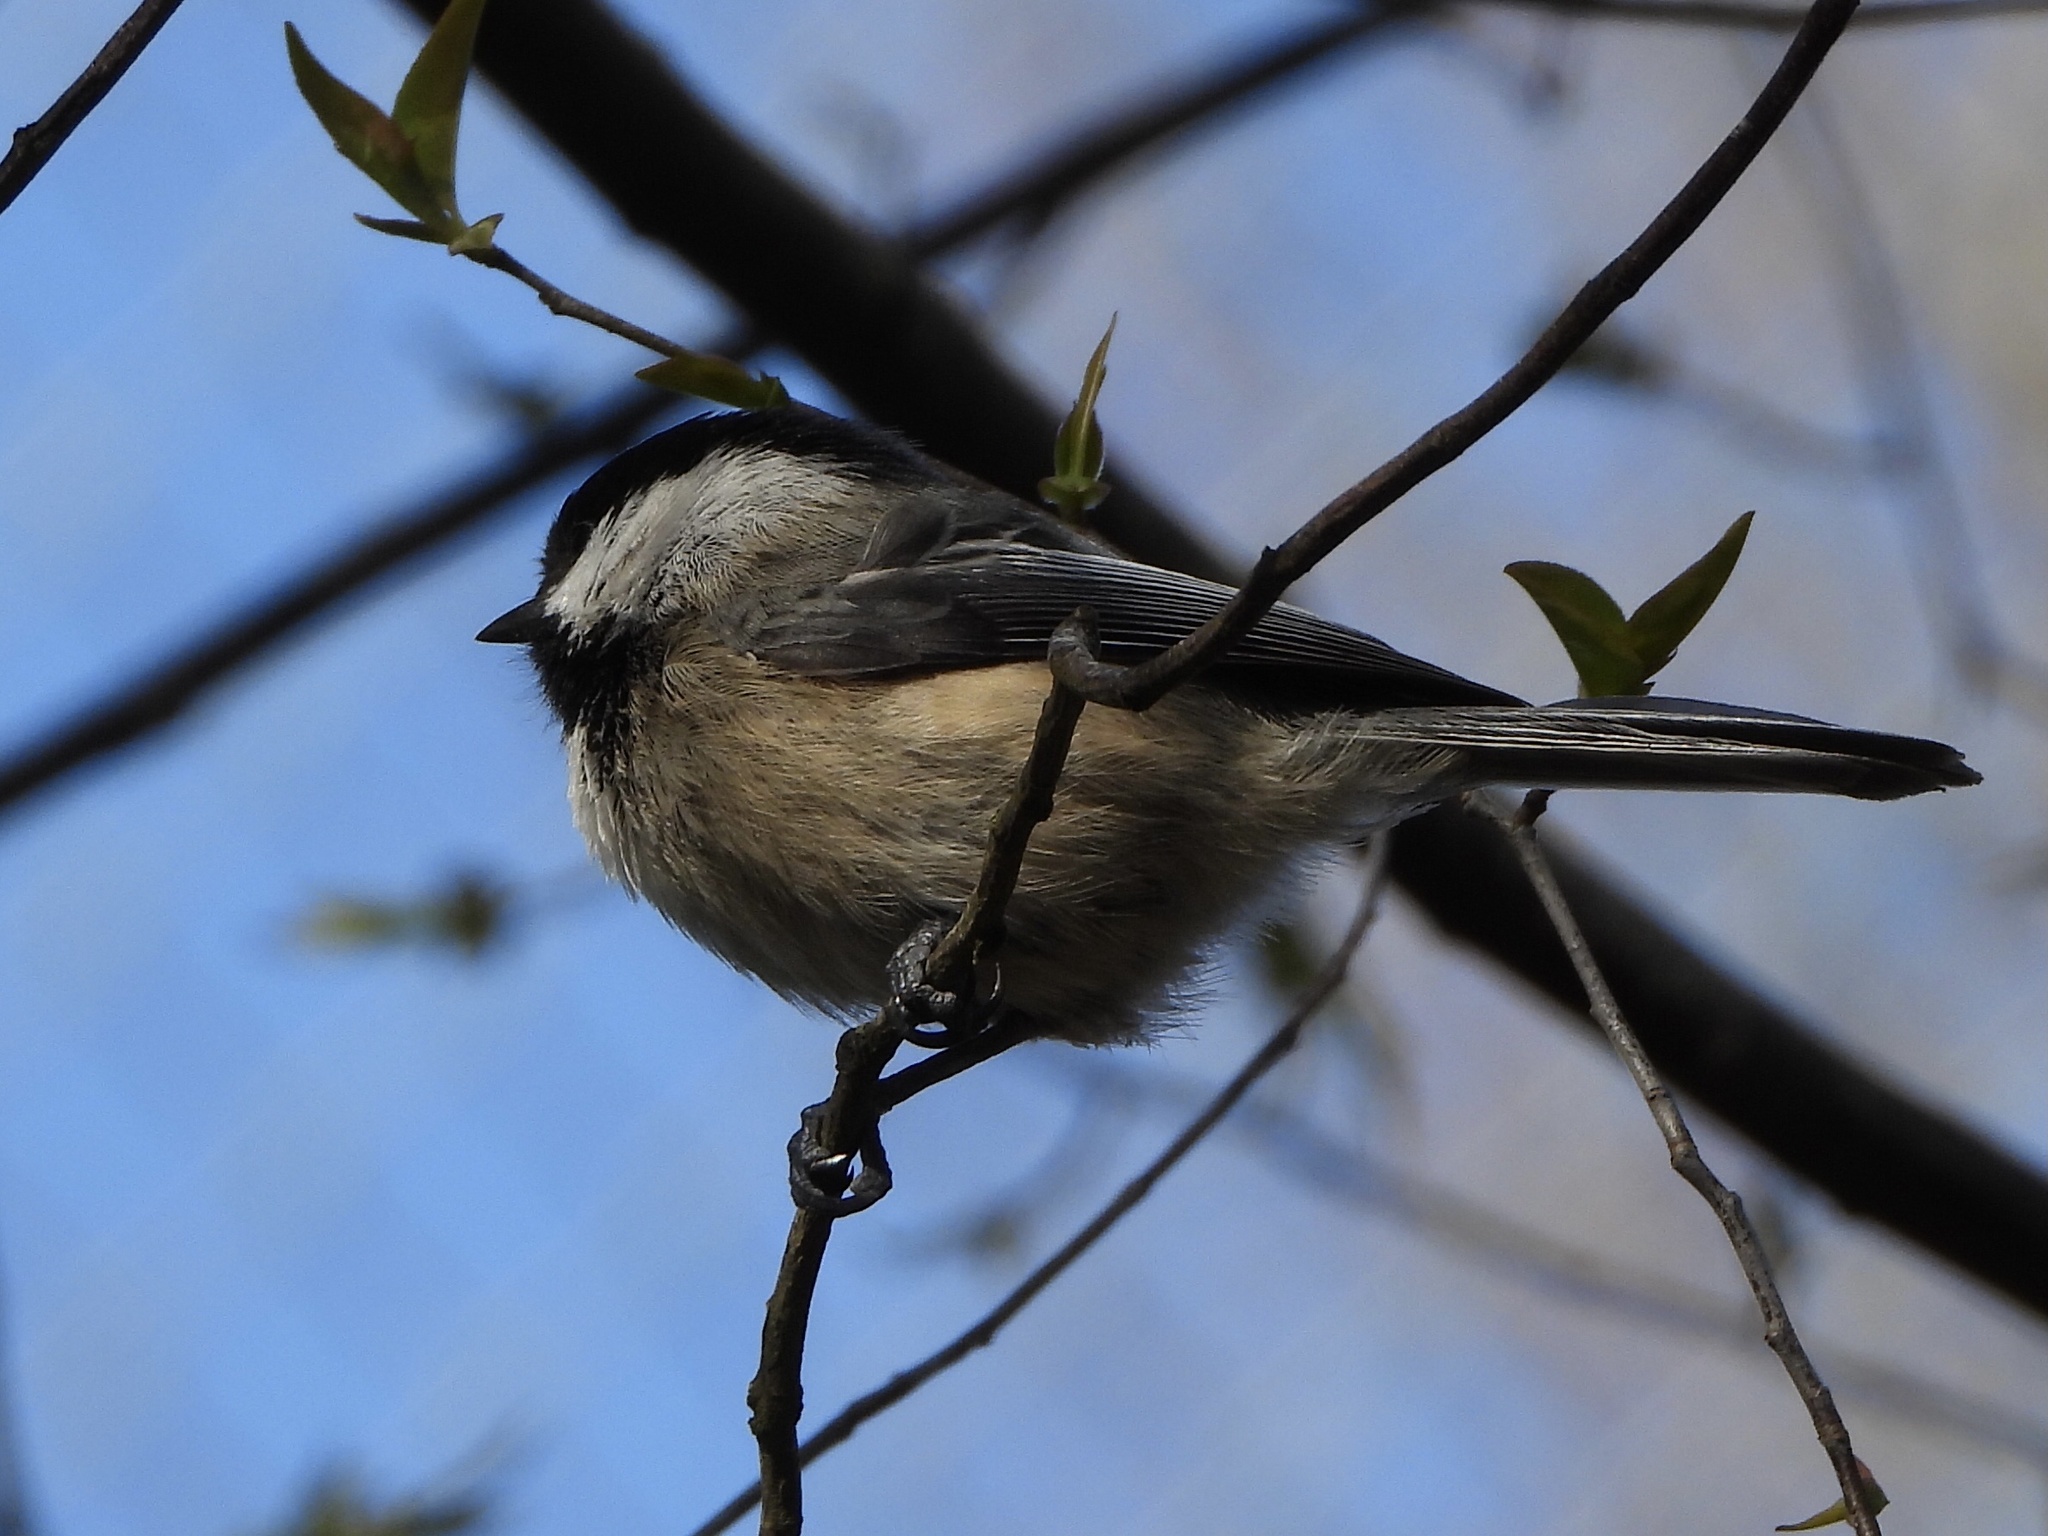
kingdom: Animalia
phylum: Chordata
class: Aves
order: Passeriformes
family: Paridae
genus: Poecile
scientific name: Poecile atricapillus
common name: Black-capped chickadee
